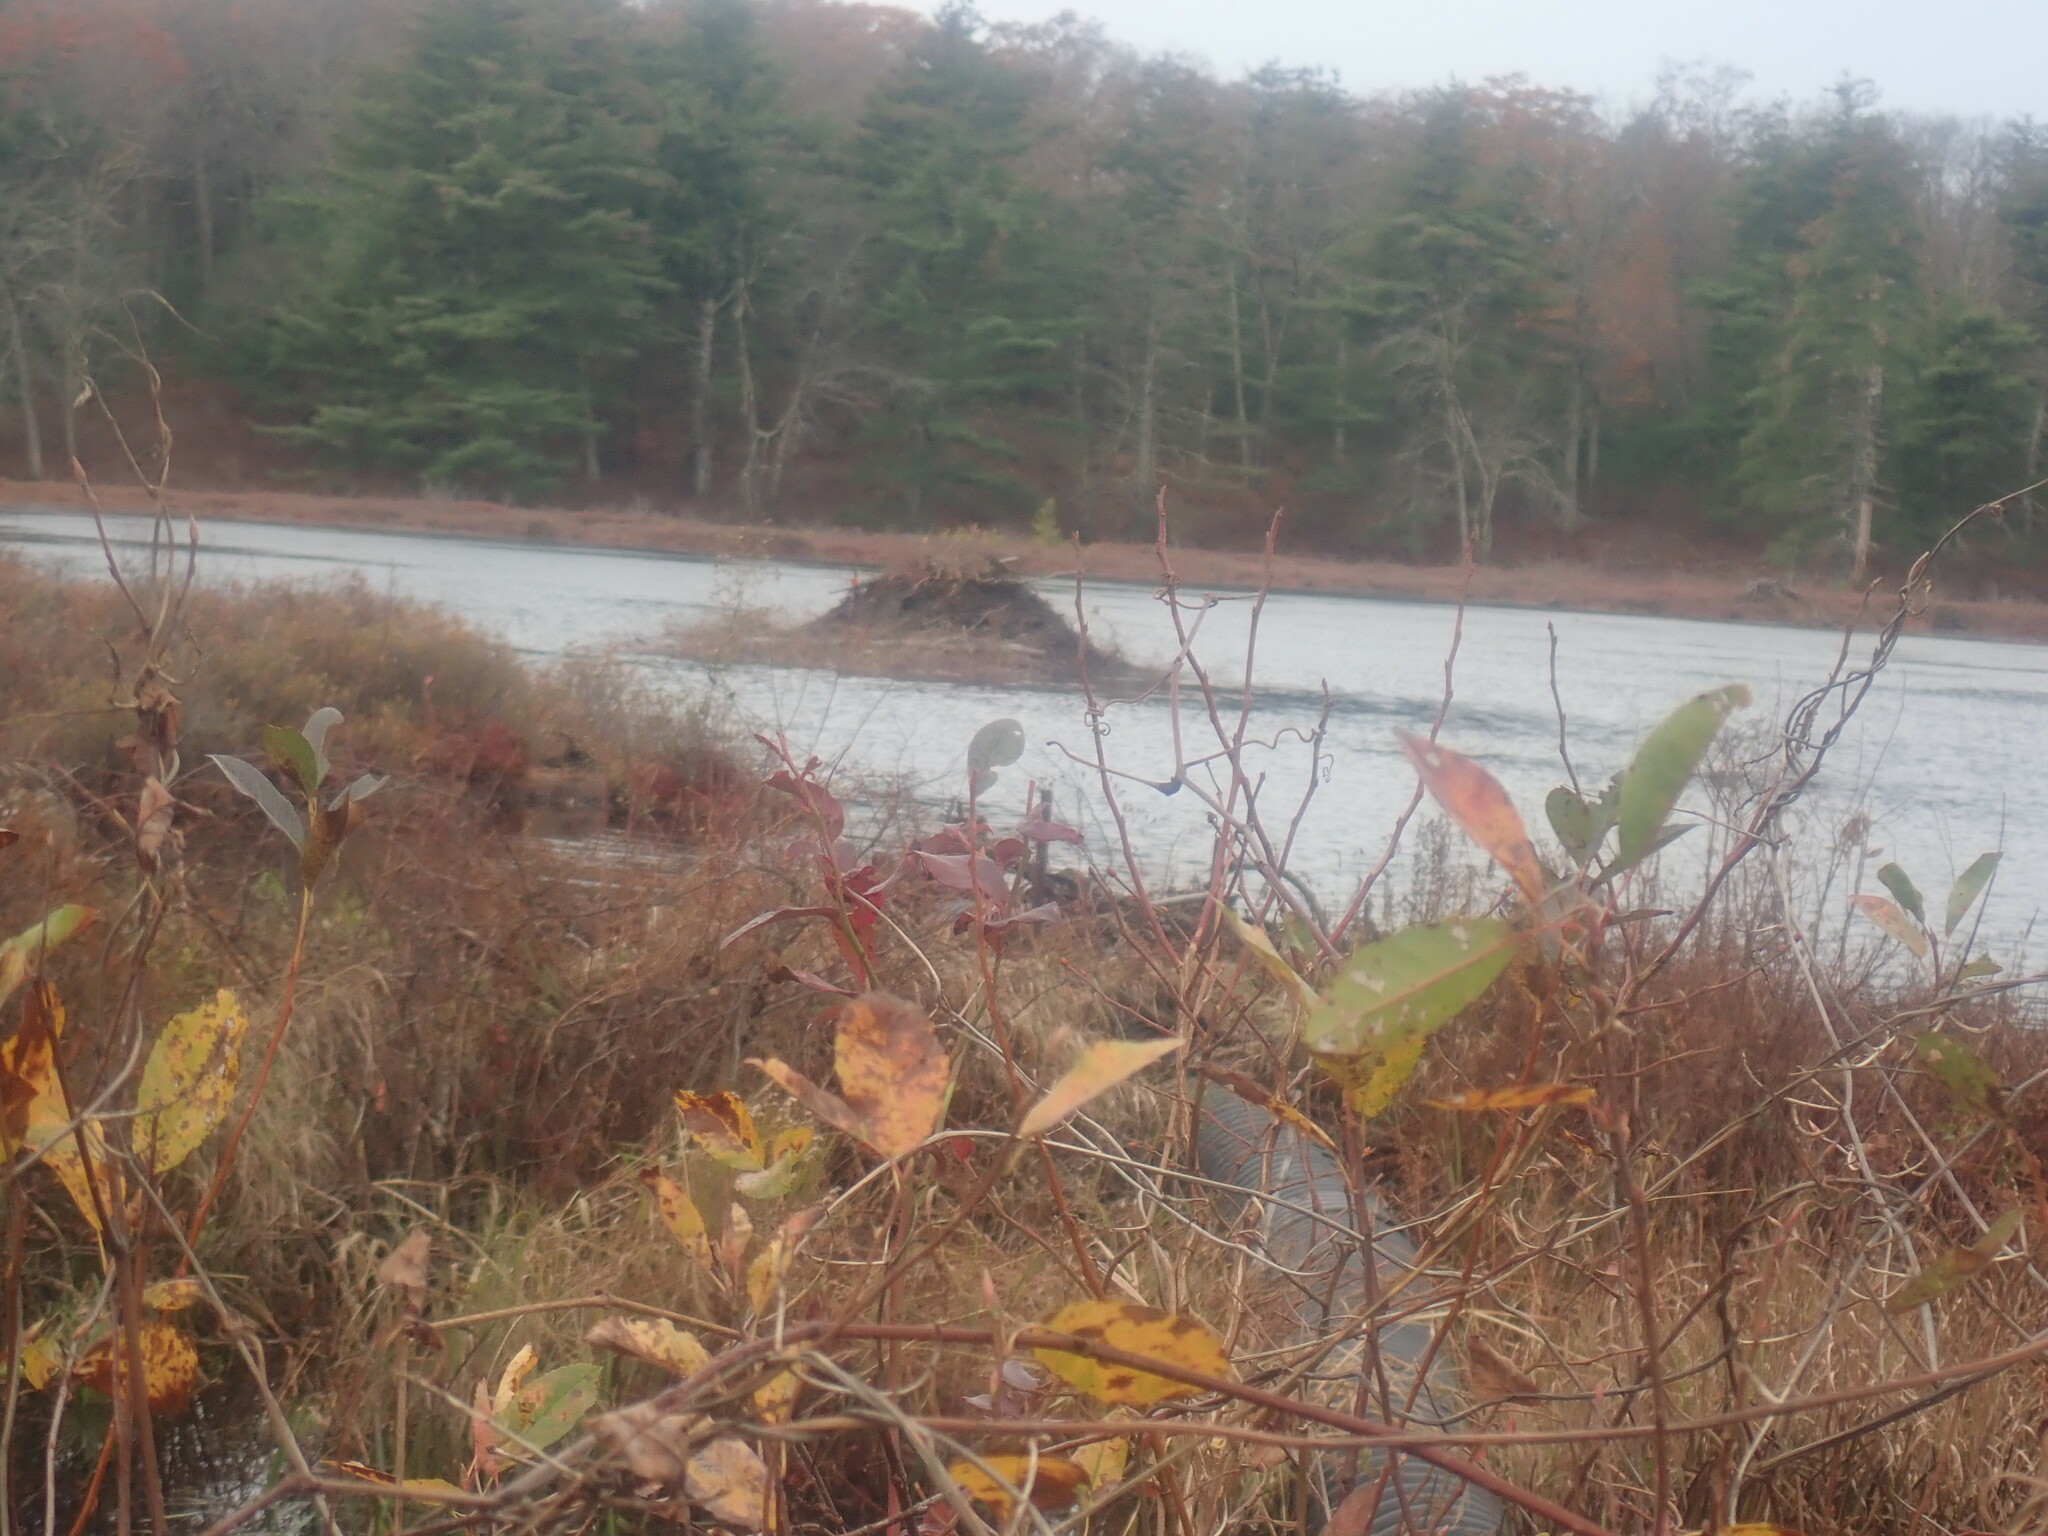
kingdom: Animalia
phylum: Chordata
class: Mammalia
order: Rodentia
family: Castoridae
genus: Castor
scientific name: Castor canadensis
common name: American beaver
